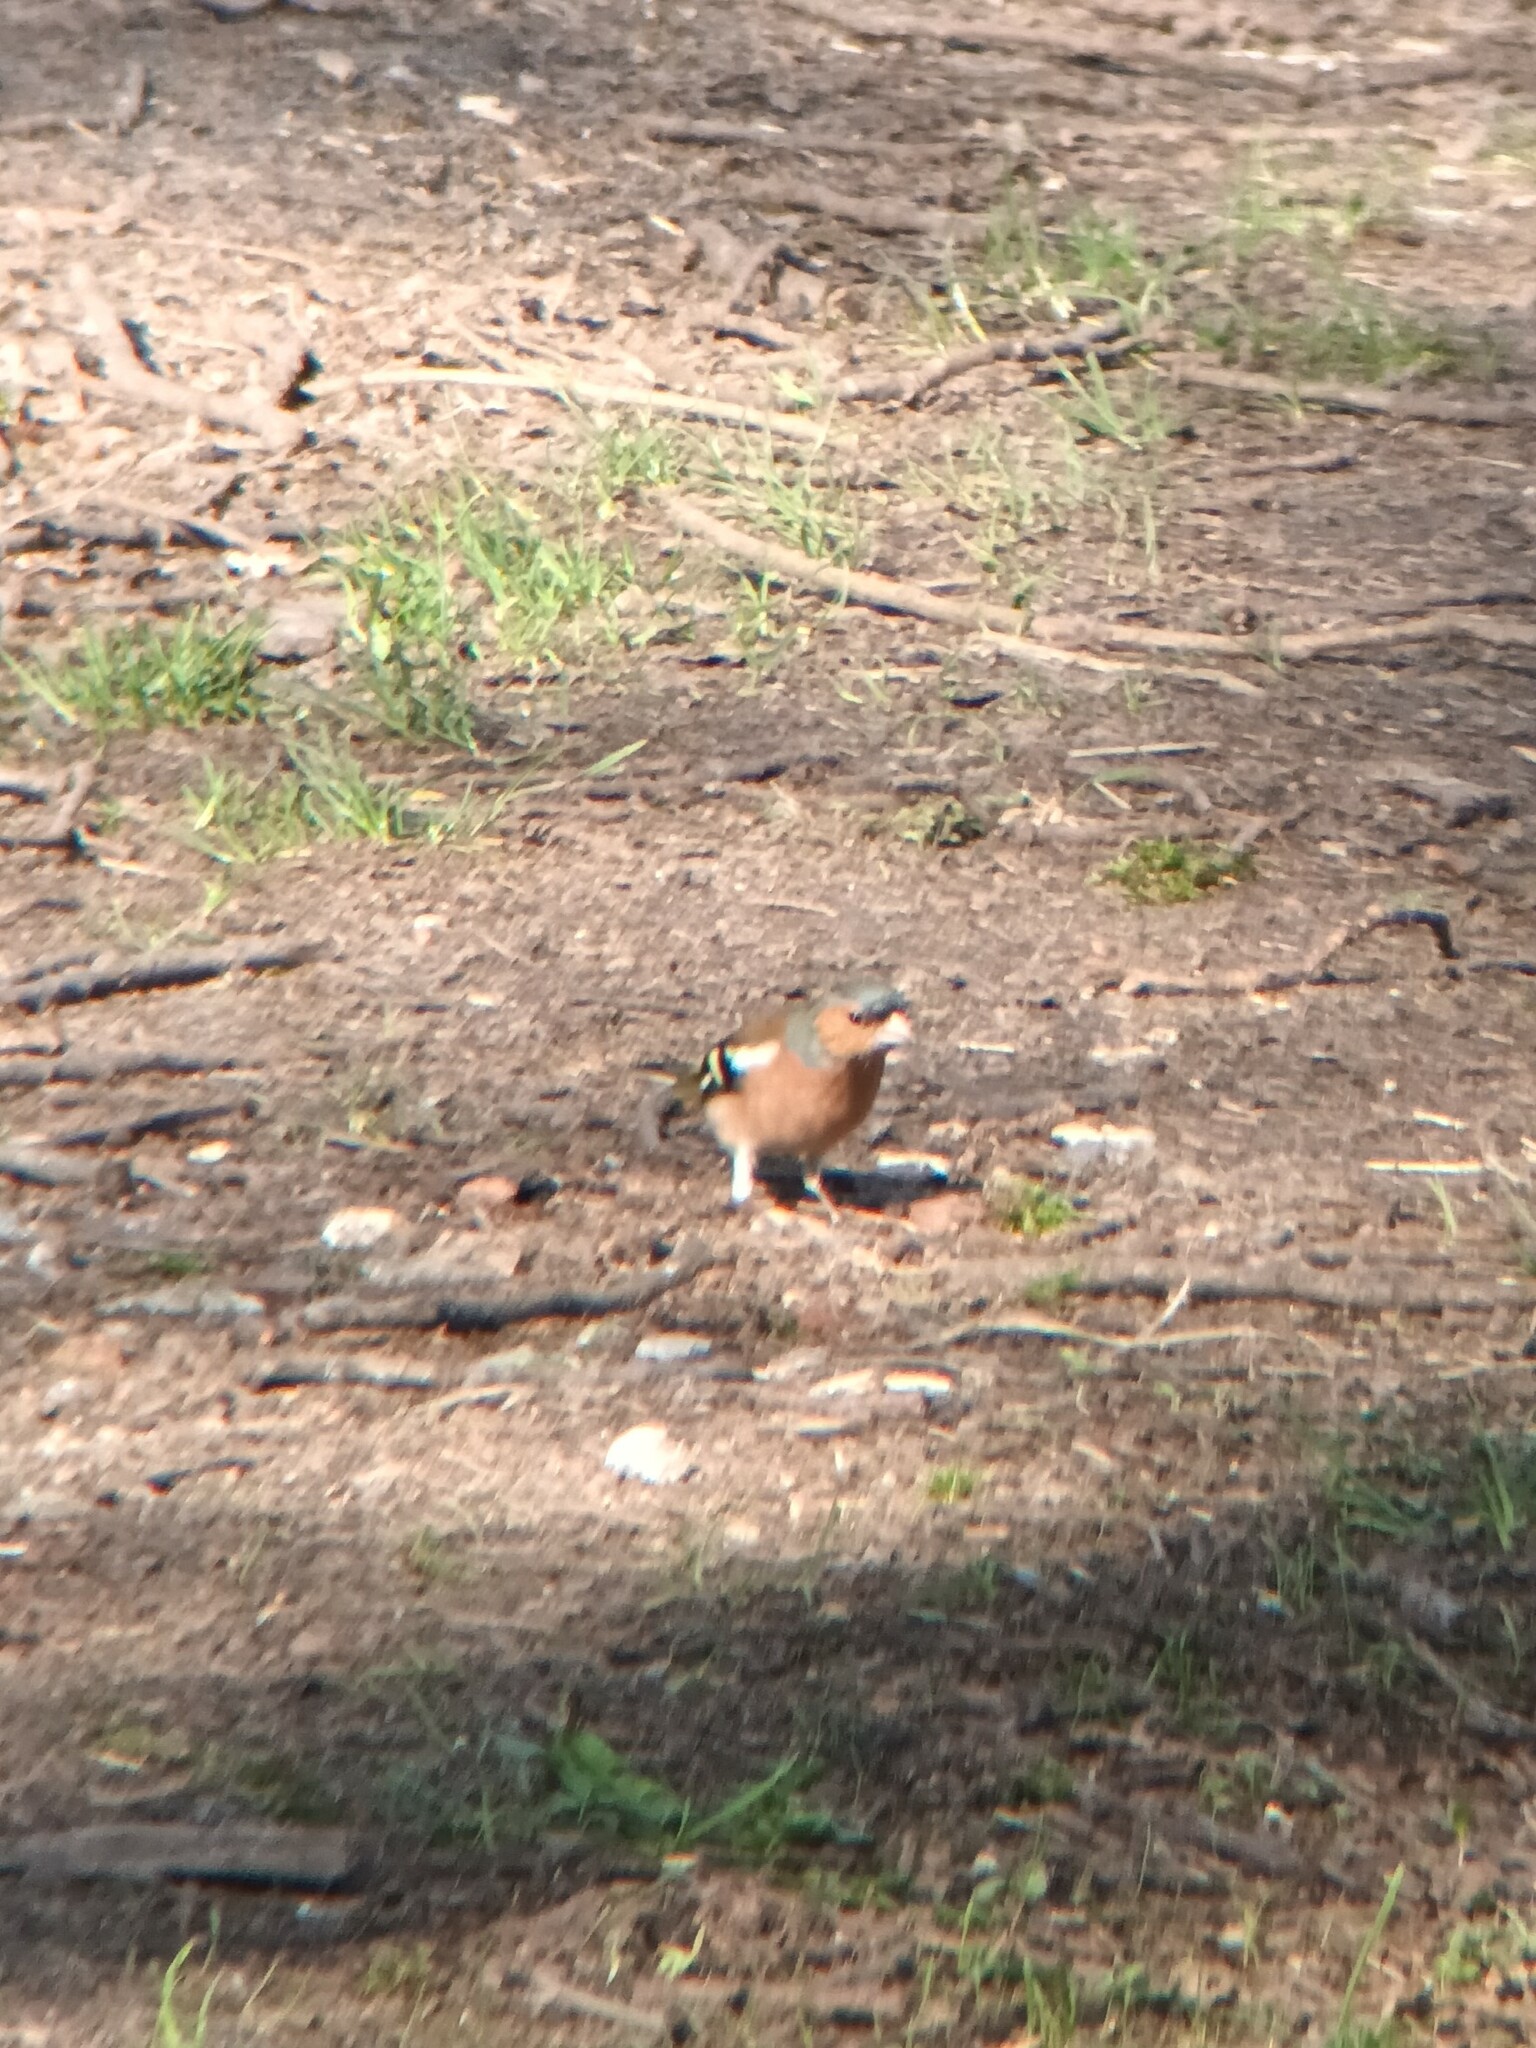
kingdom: Animalia
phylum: Chordata
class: Aves
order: Passeriformes
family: Fringillidae
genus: Fringilla
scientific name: Fringilla coelebs
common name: Common chaffinch
